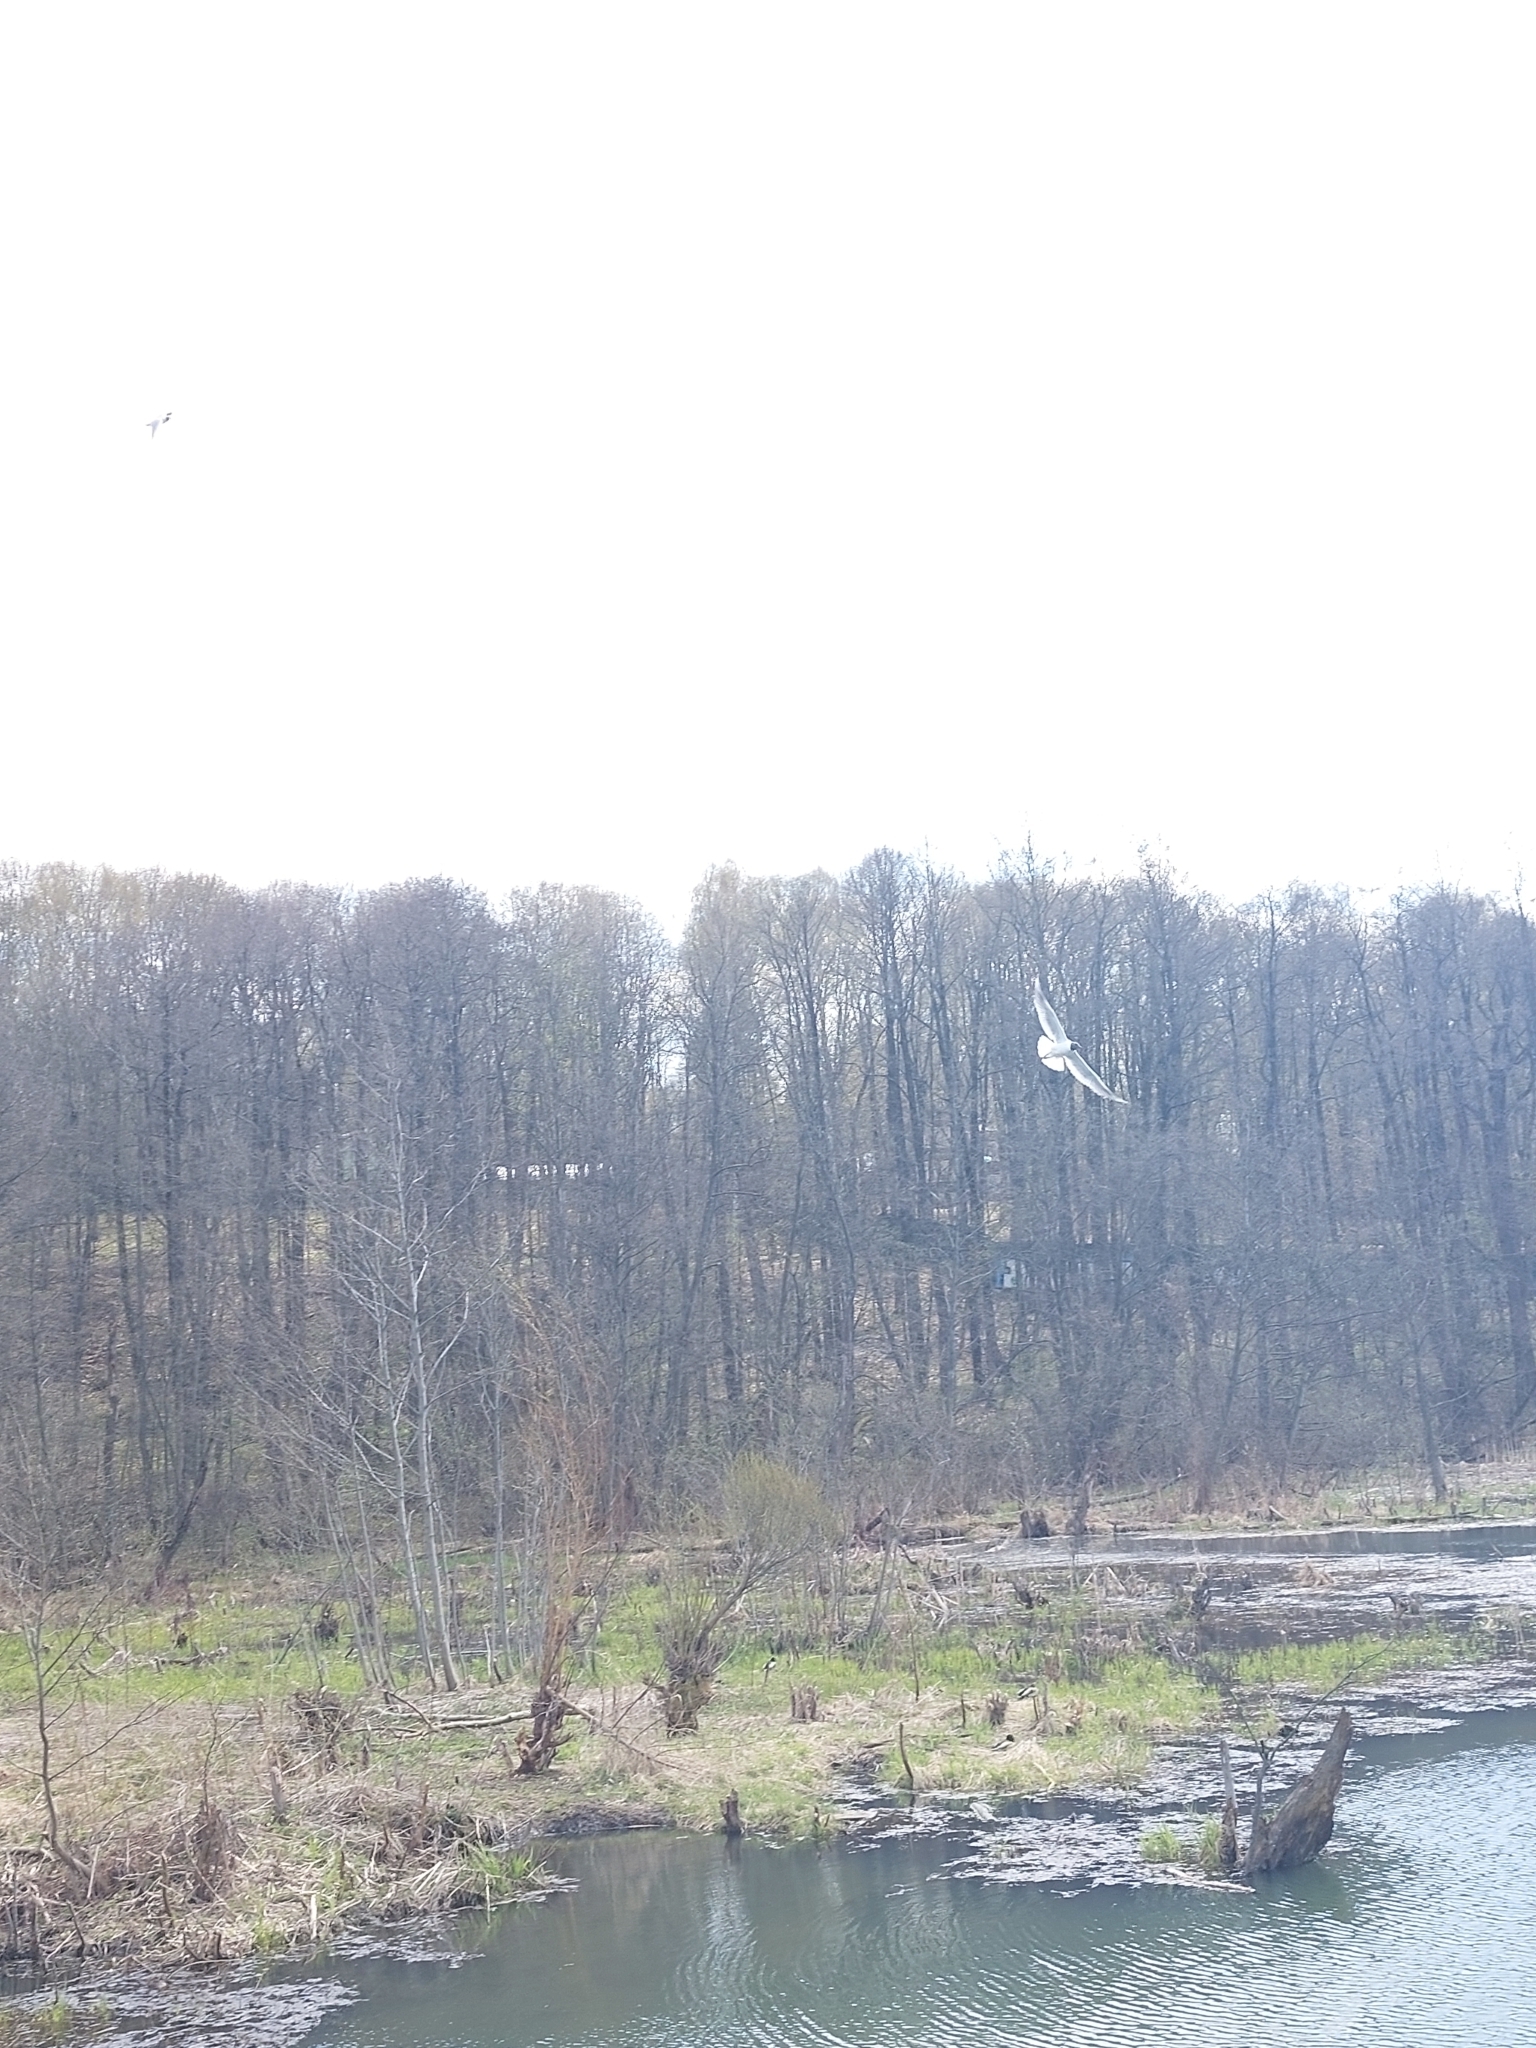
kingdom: Animalia
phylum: Chordata
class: Aves
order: Charadriiformes
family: Laridae
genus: Chroicocephalus
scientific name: Chroicocephalus ridibundus
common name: Black-headed gull
